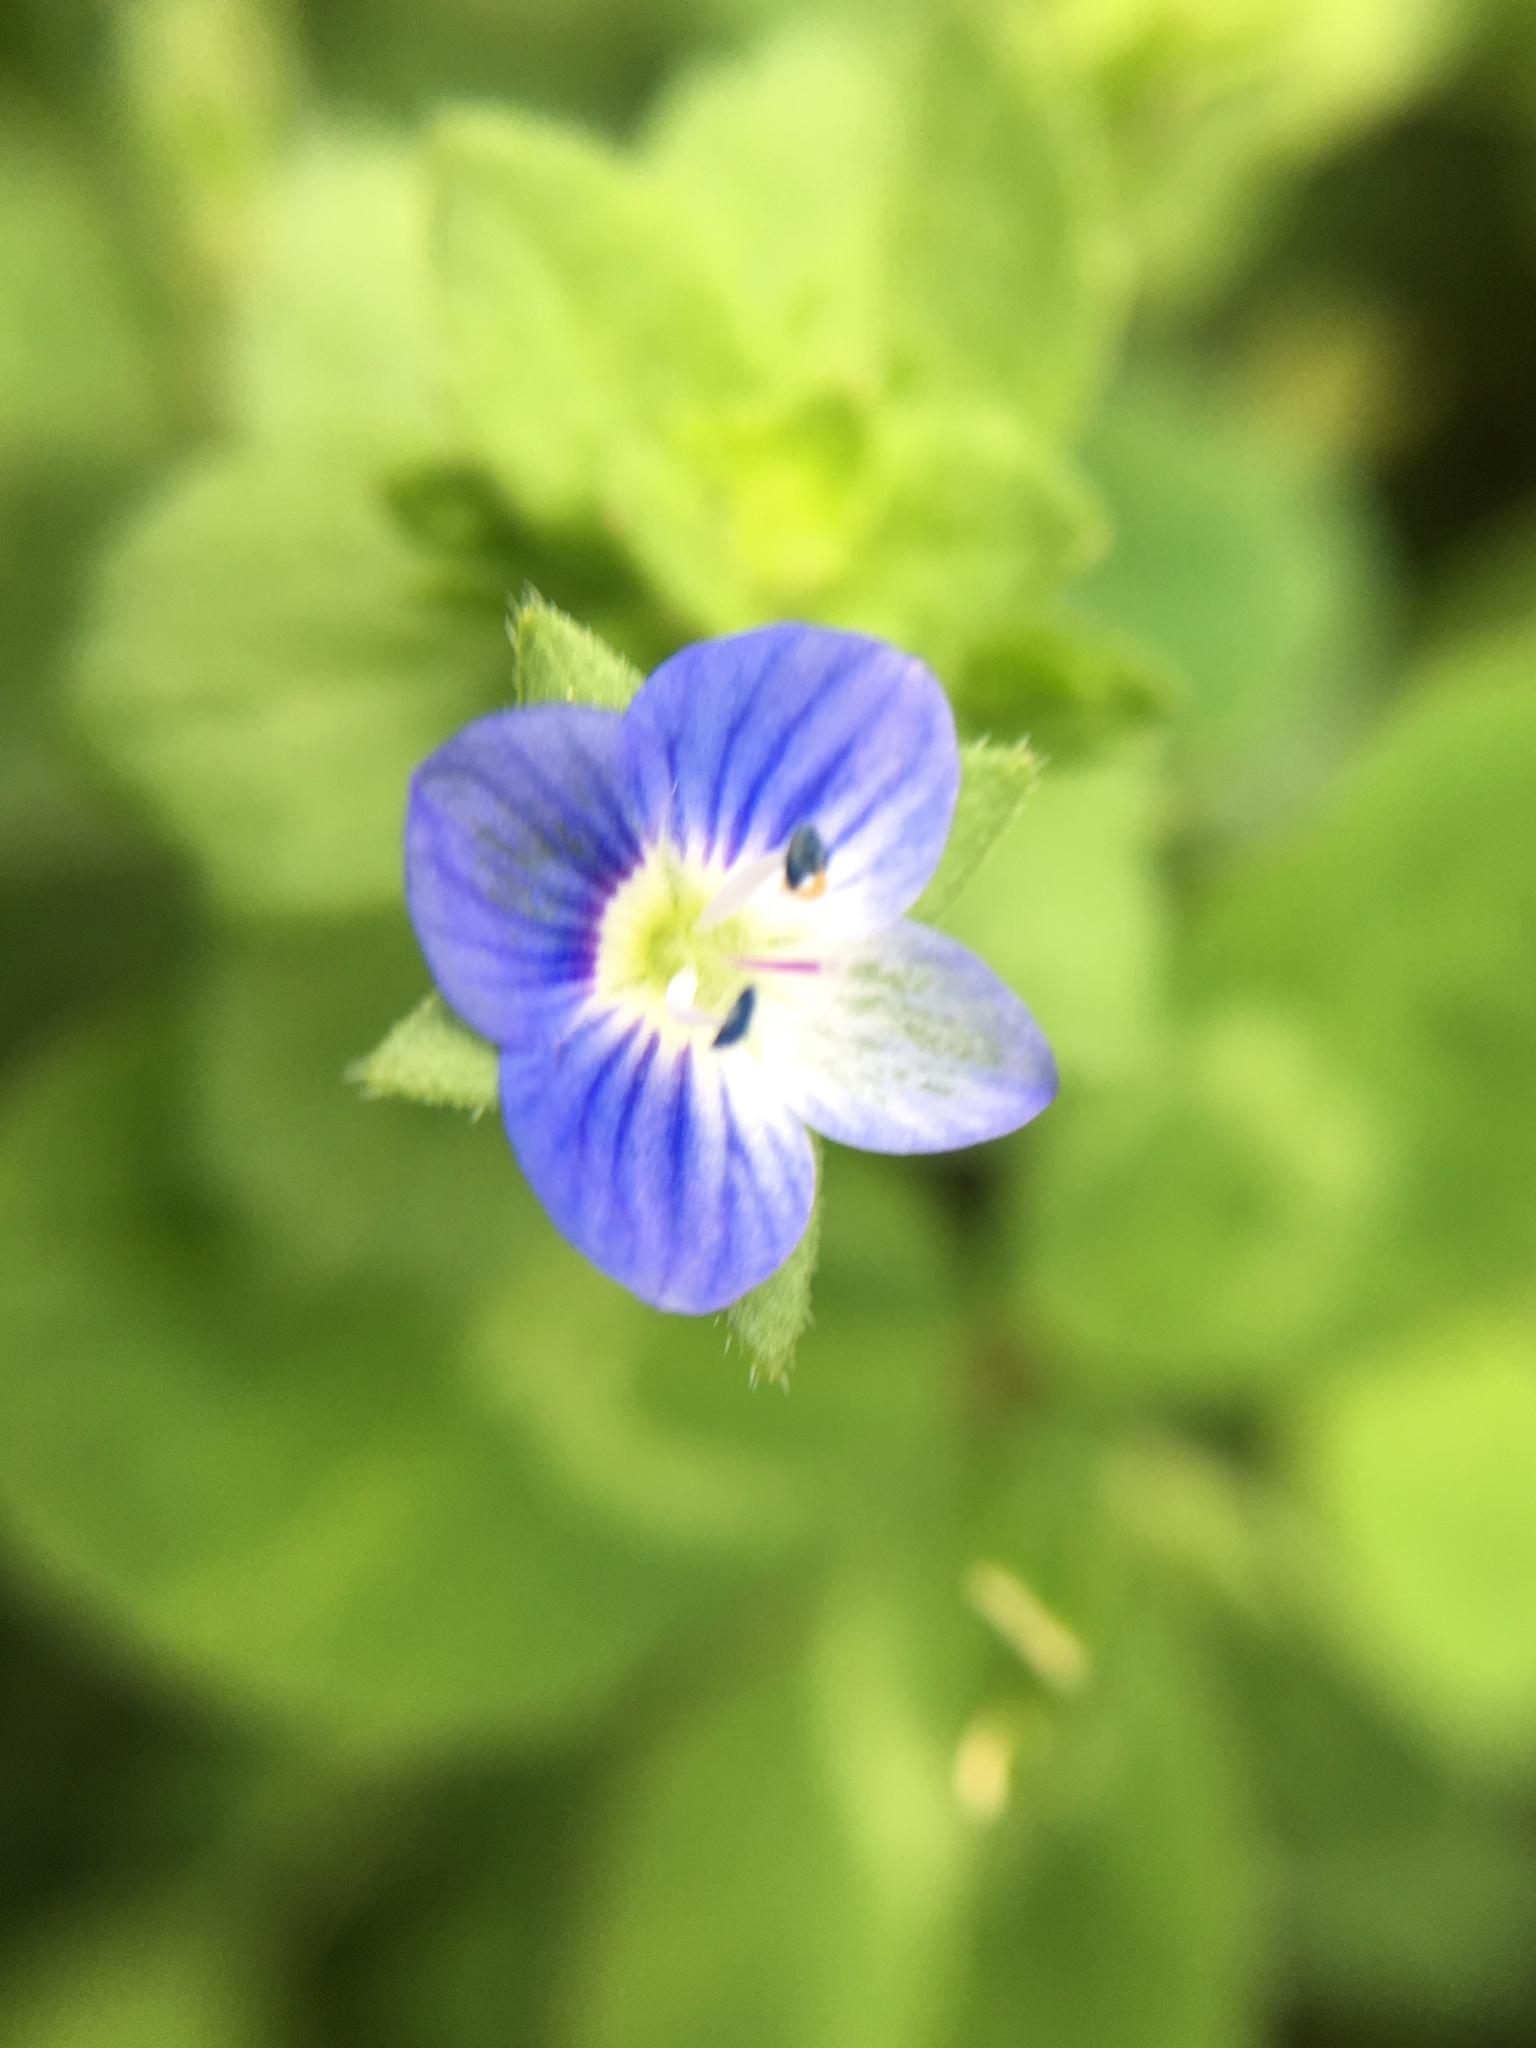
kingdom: Plantae
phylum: Tracheophyta
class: Magnoliopsida
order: Lamiales
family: Plantaginaceae
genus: Veronica
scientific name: Veronica persica
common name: Common field-speedwell
